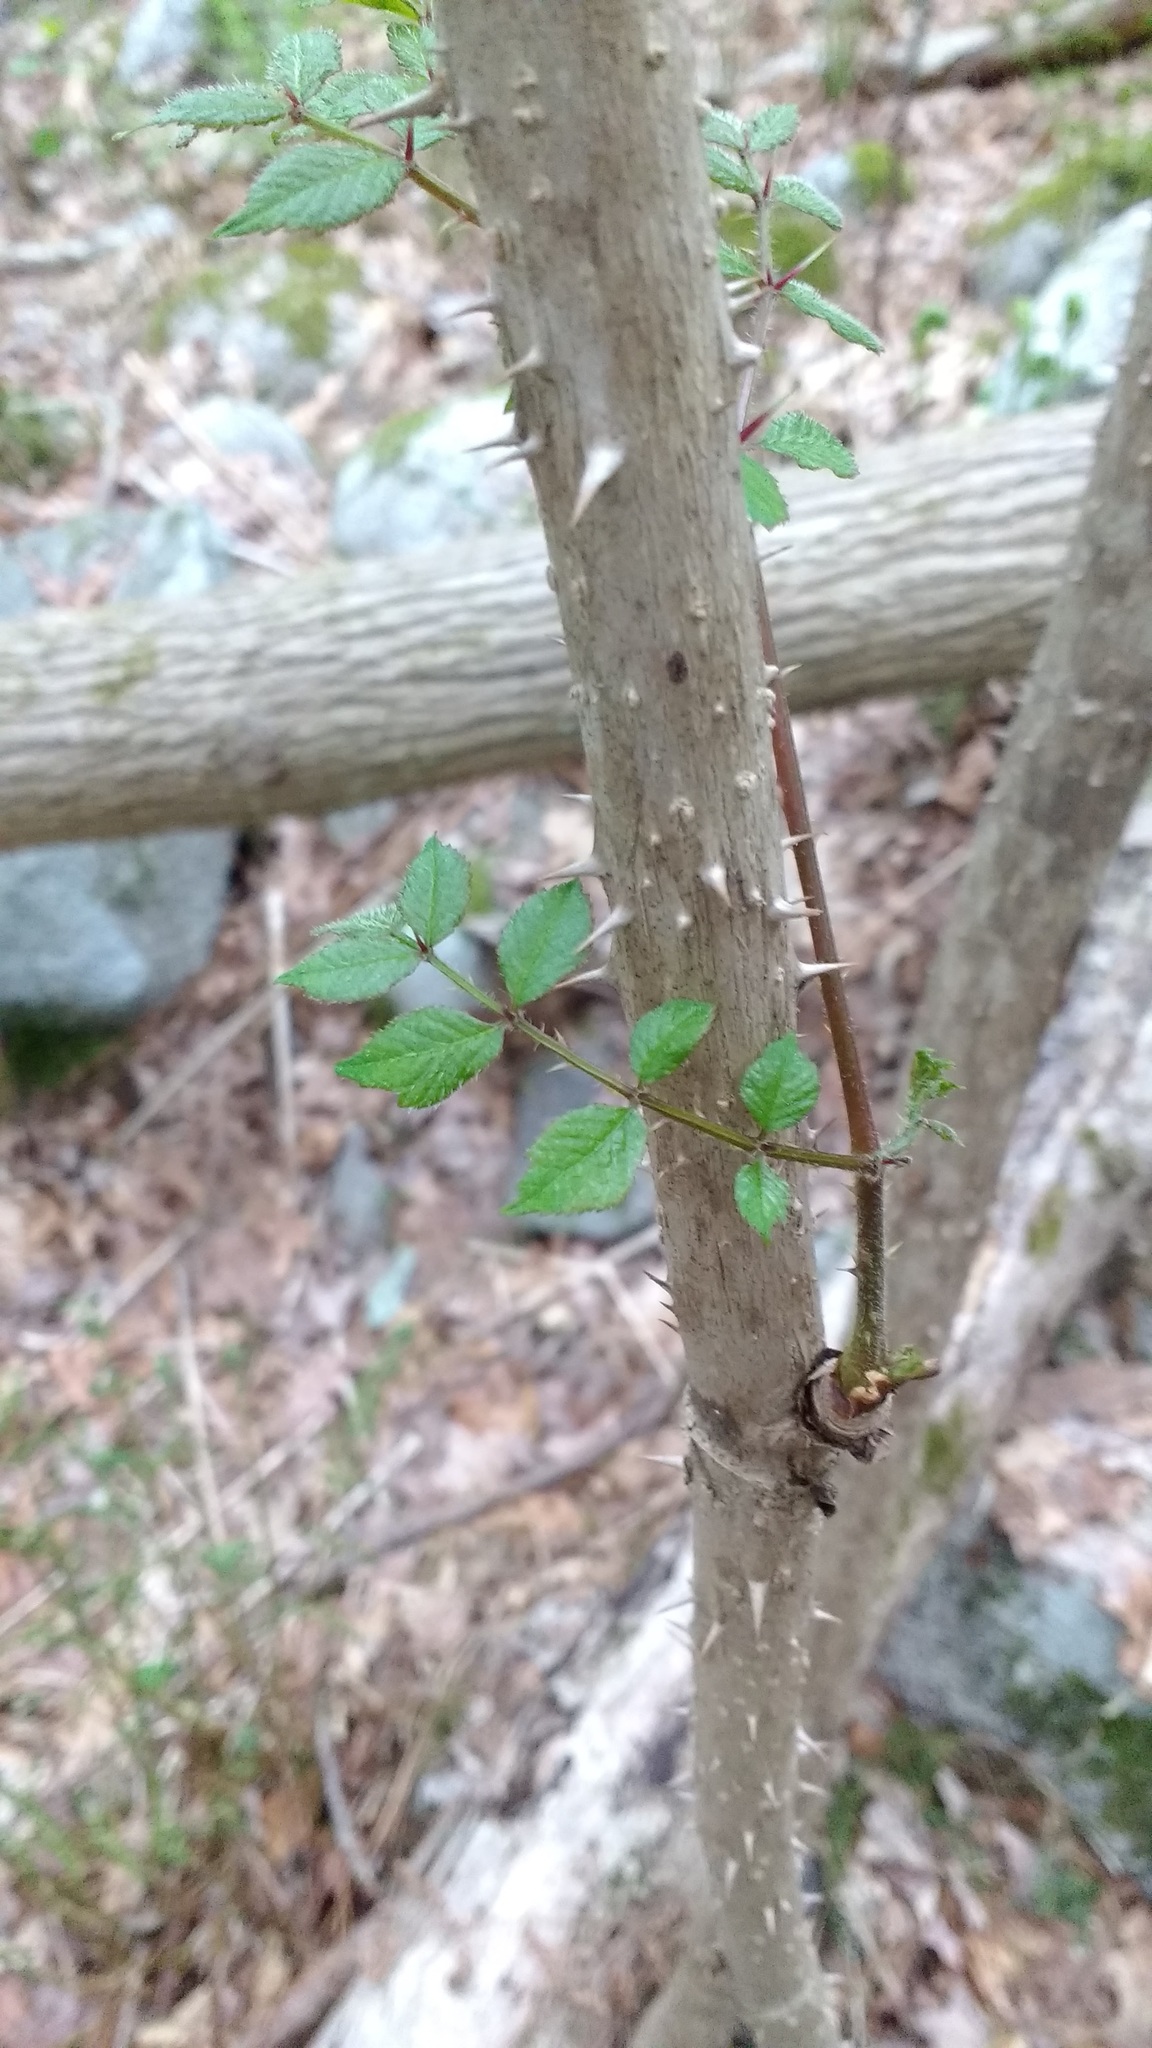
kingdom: Plantae
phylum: Tracheophyta
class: Magnoliopsida
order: Apiales
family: Araliaceae
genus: Aralia
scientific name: Aralia elata
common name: Japanese angelica-tree
